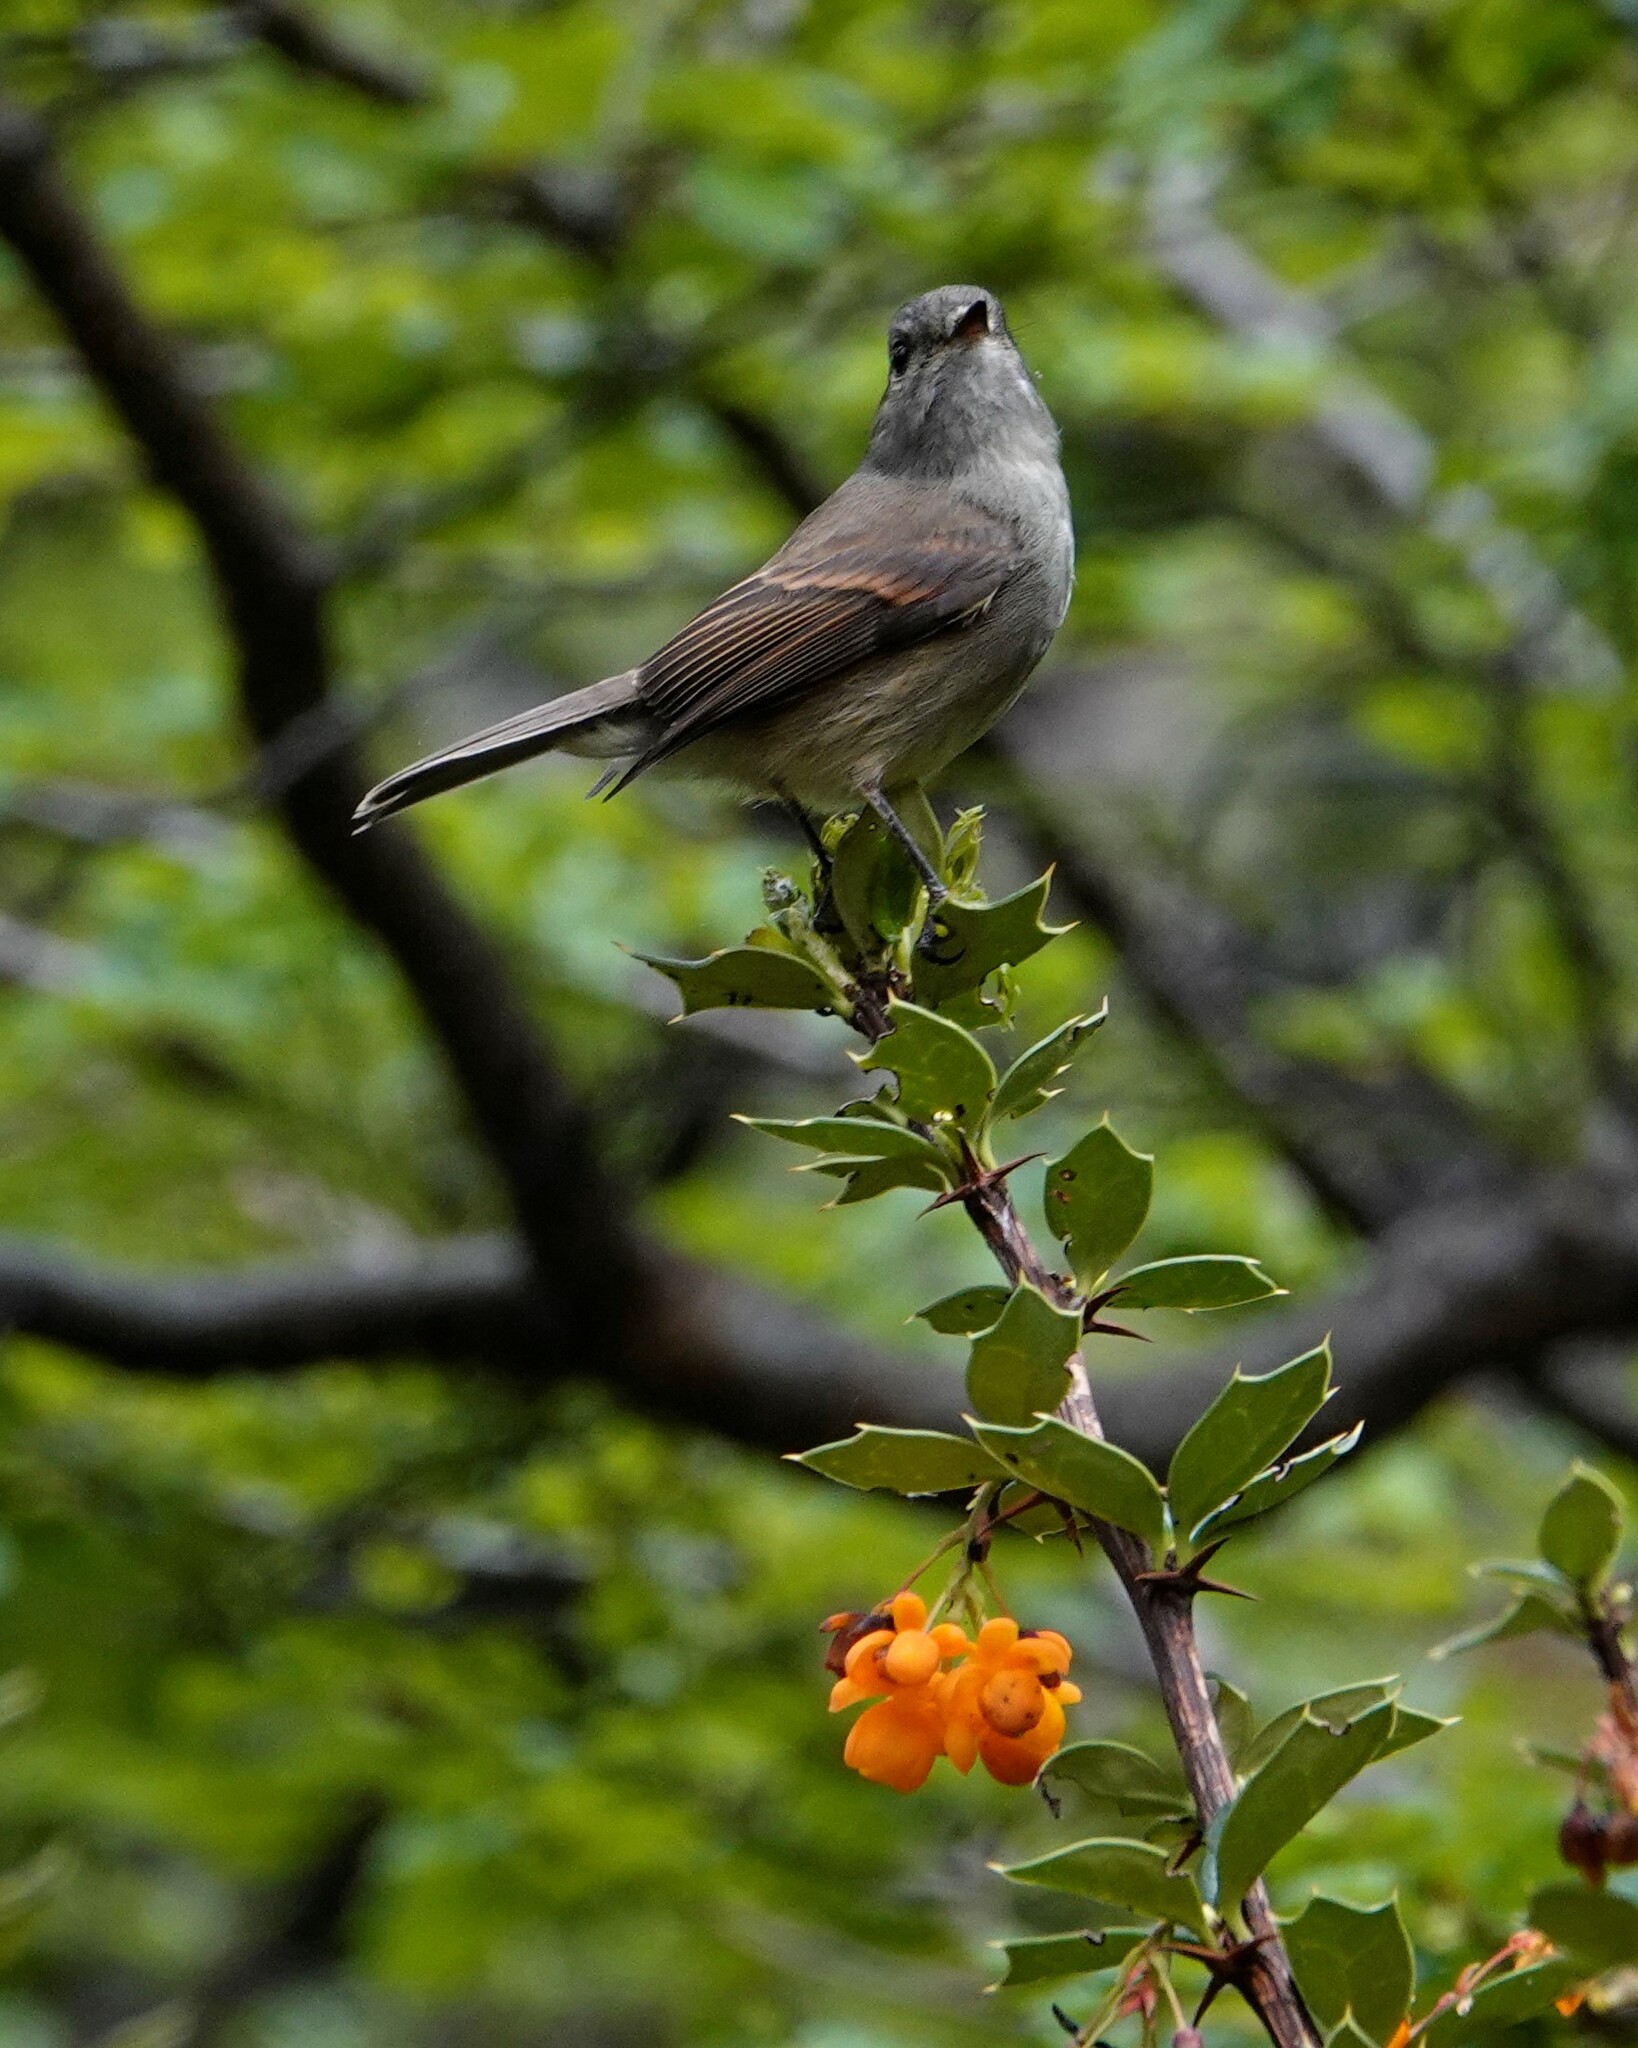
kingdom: Animalia
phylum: Chordata
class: Aves
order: Passeriformes
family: Tyrannidae
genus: Colorhamphus
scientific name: Colorhamphus parvirostris
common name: Patagonian tyrant
